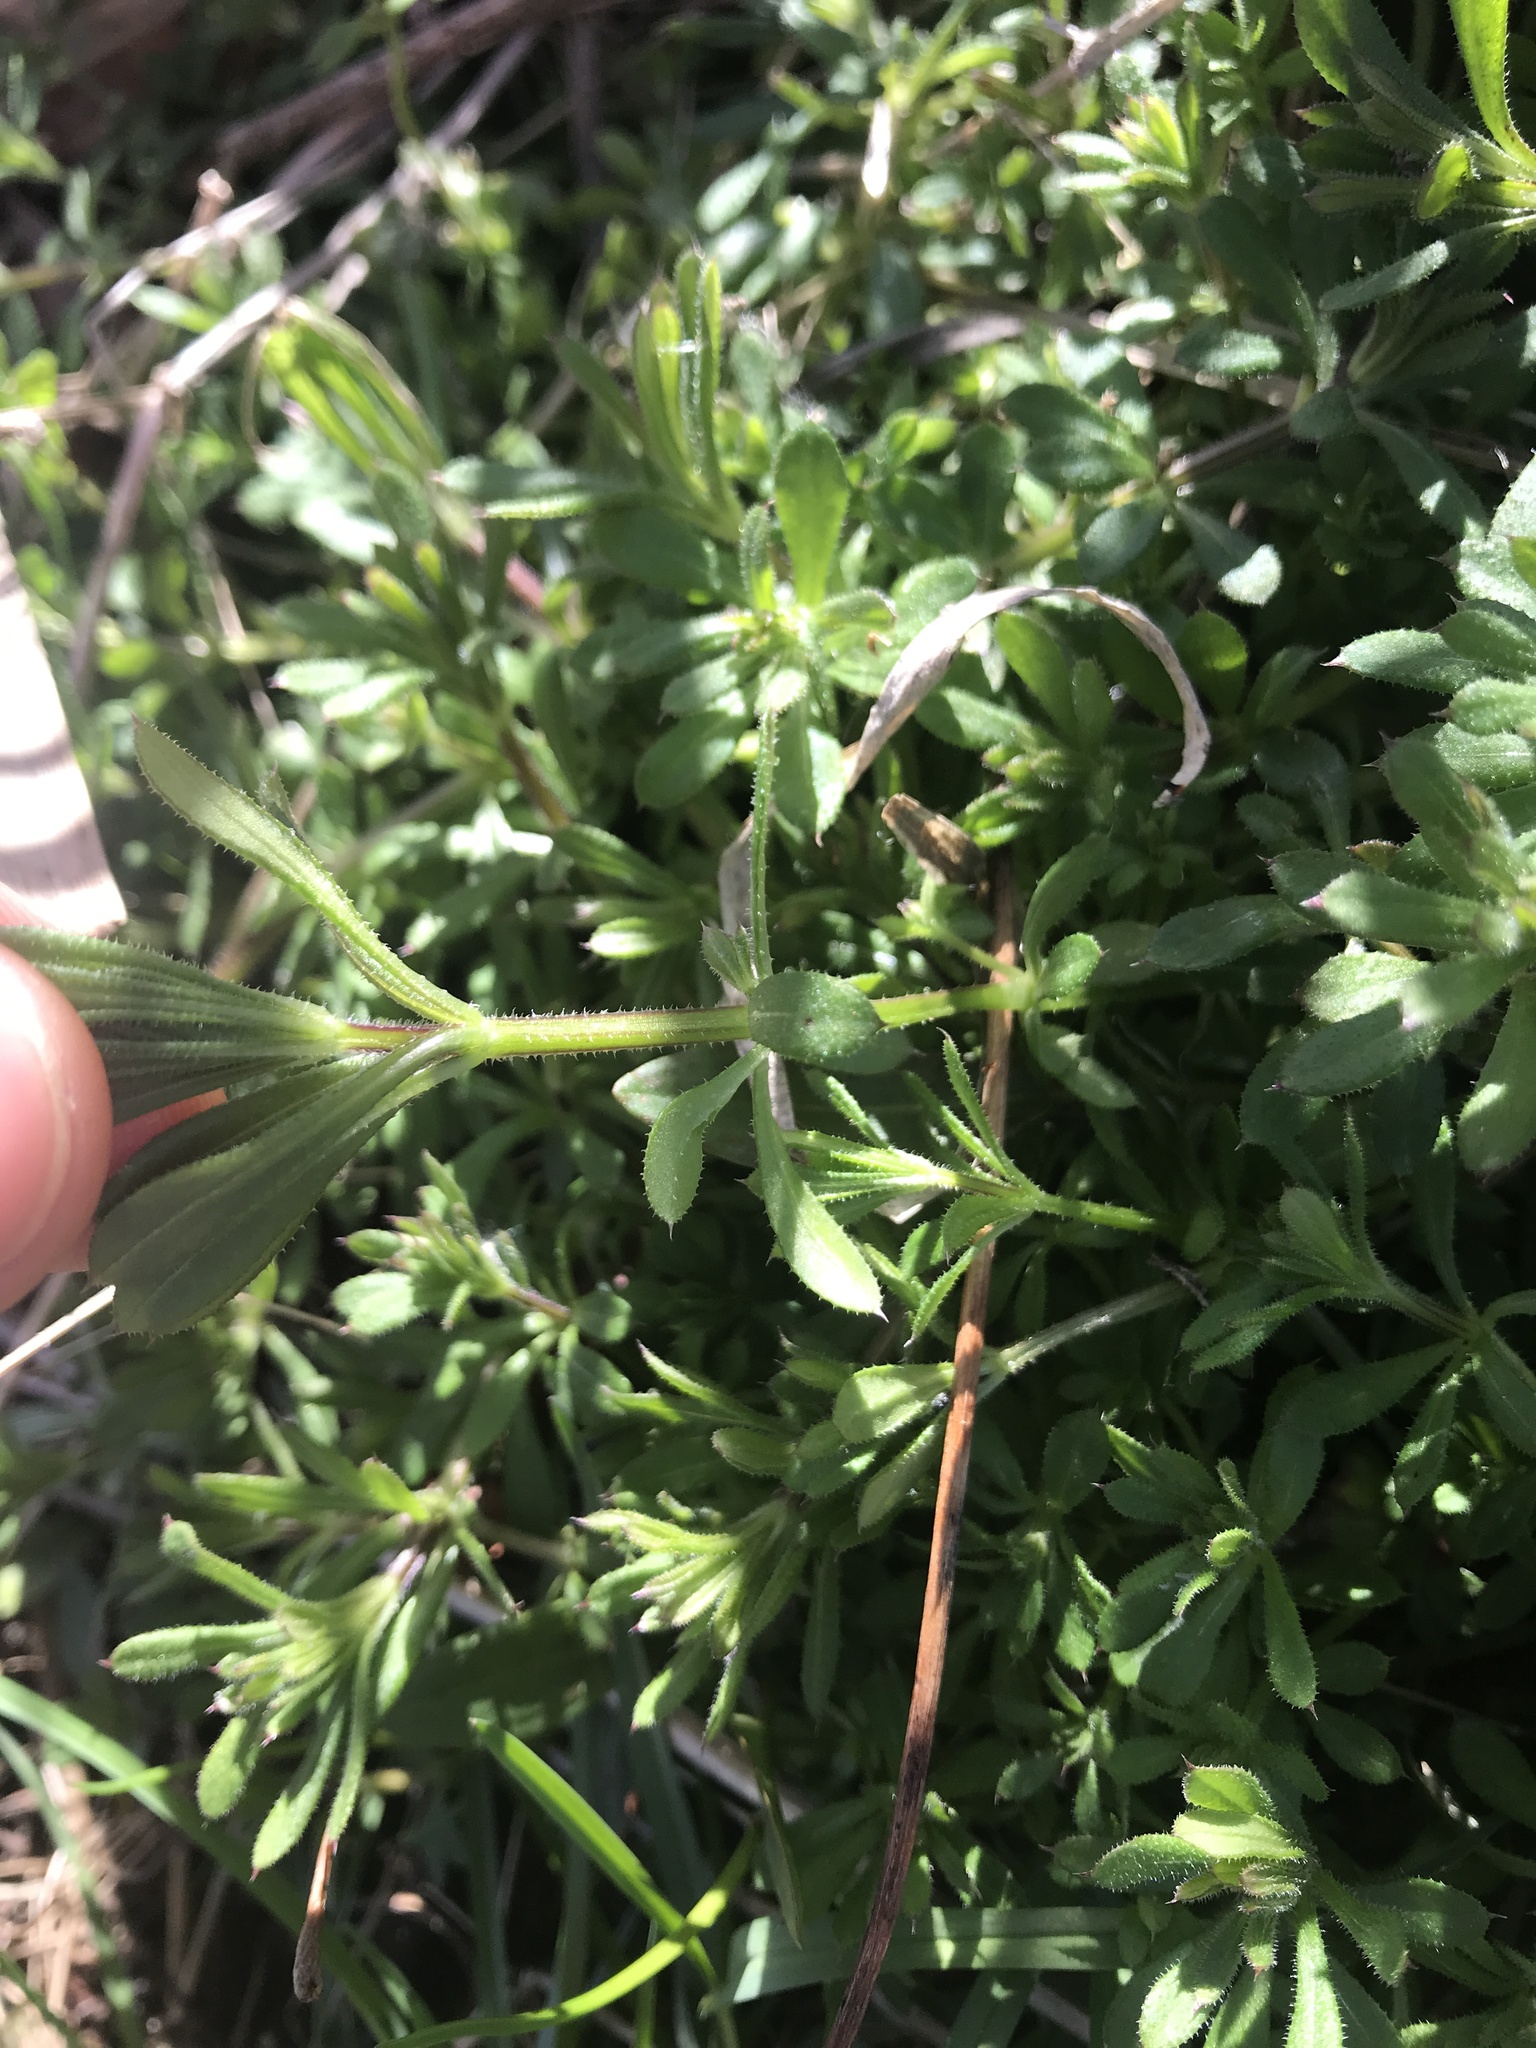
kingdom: Plantae
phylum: Tracheophyta
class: Magnoliopsida
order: Gentianales
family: Rubiaceae
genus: Galium
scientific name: Galium aparine
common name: Cleavers
